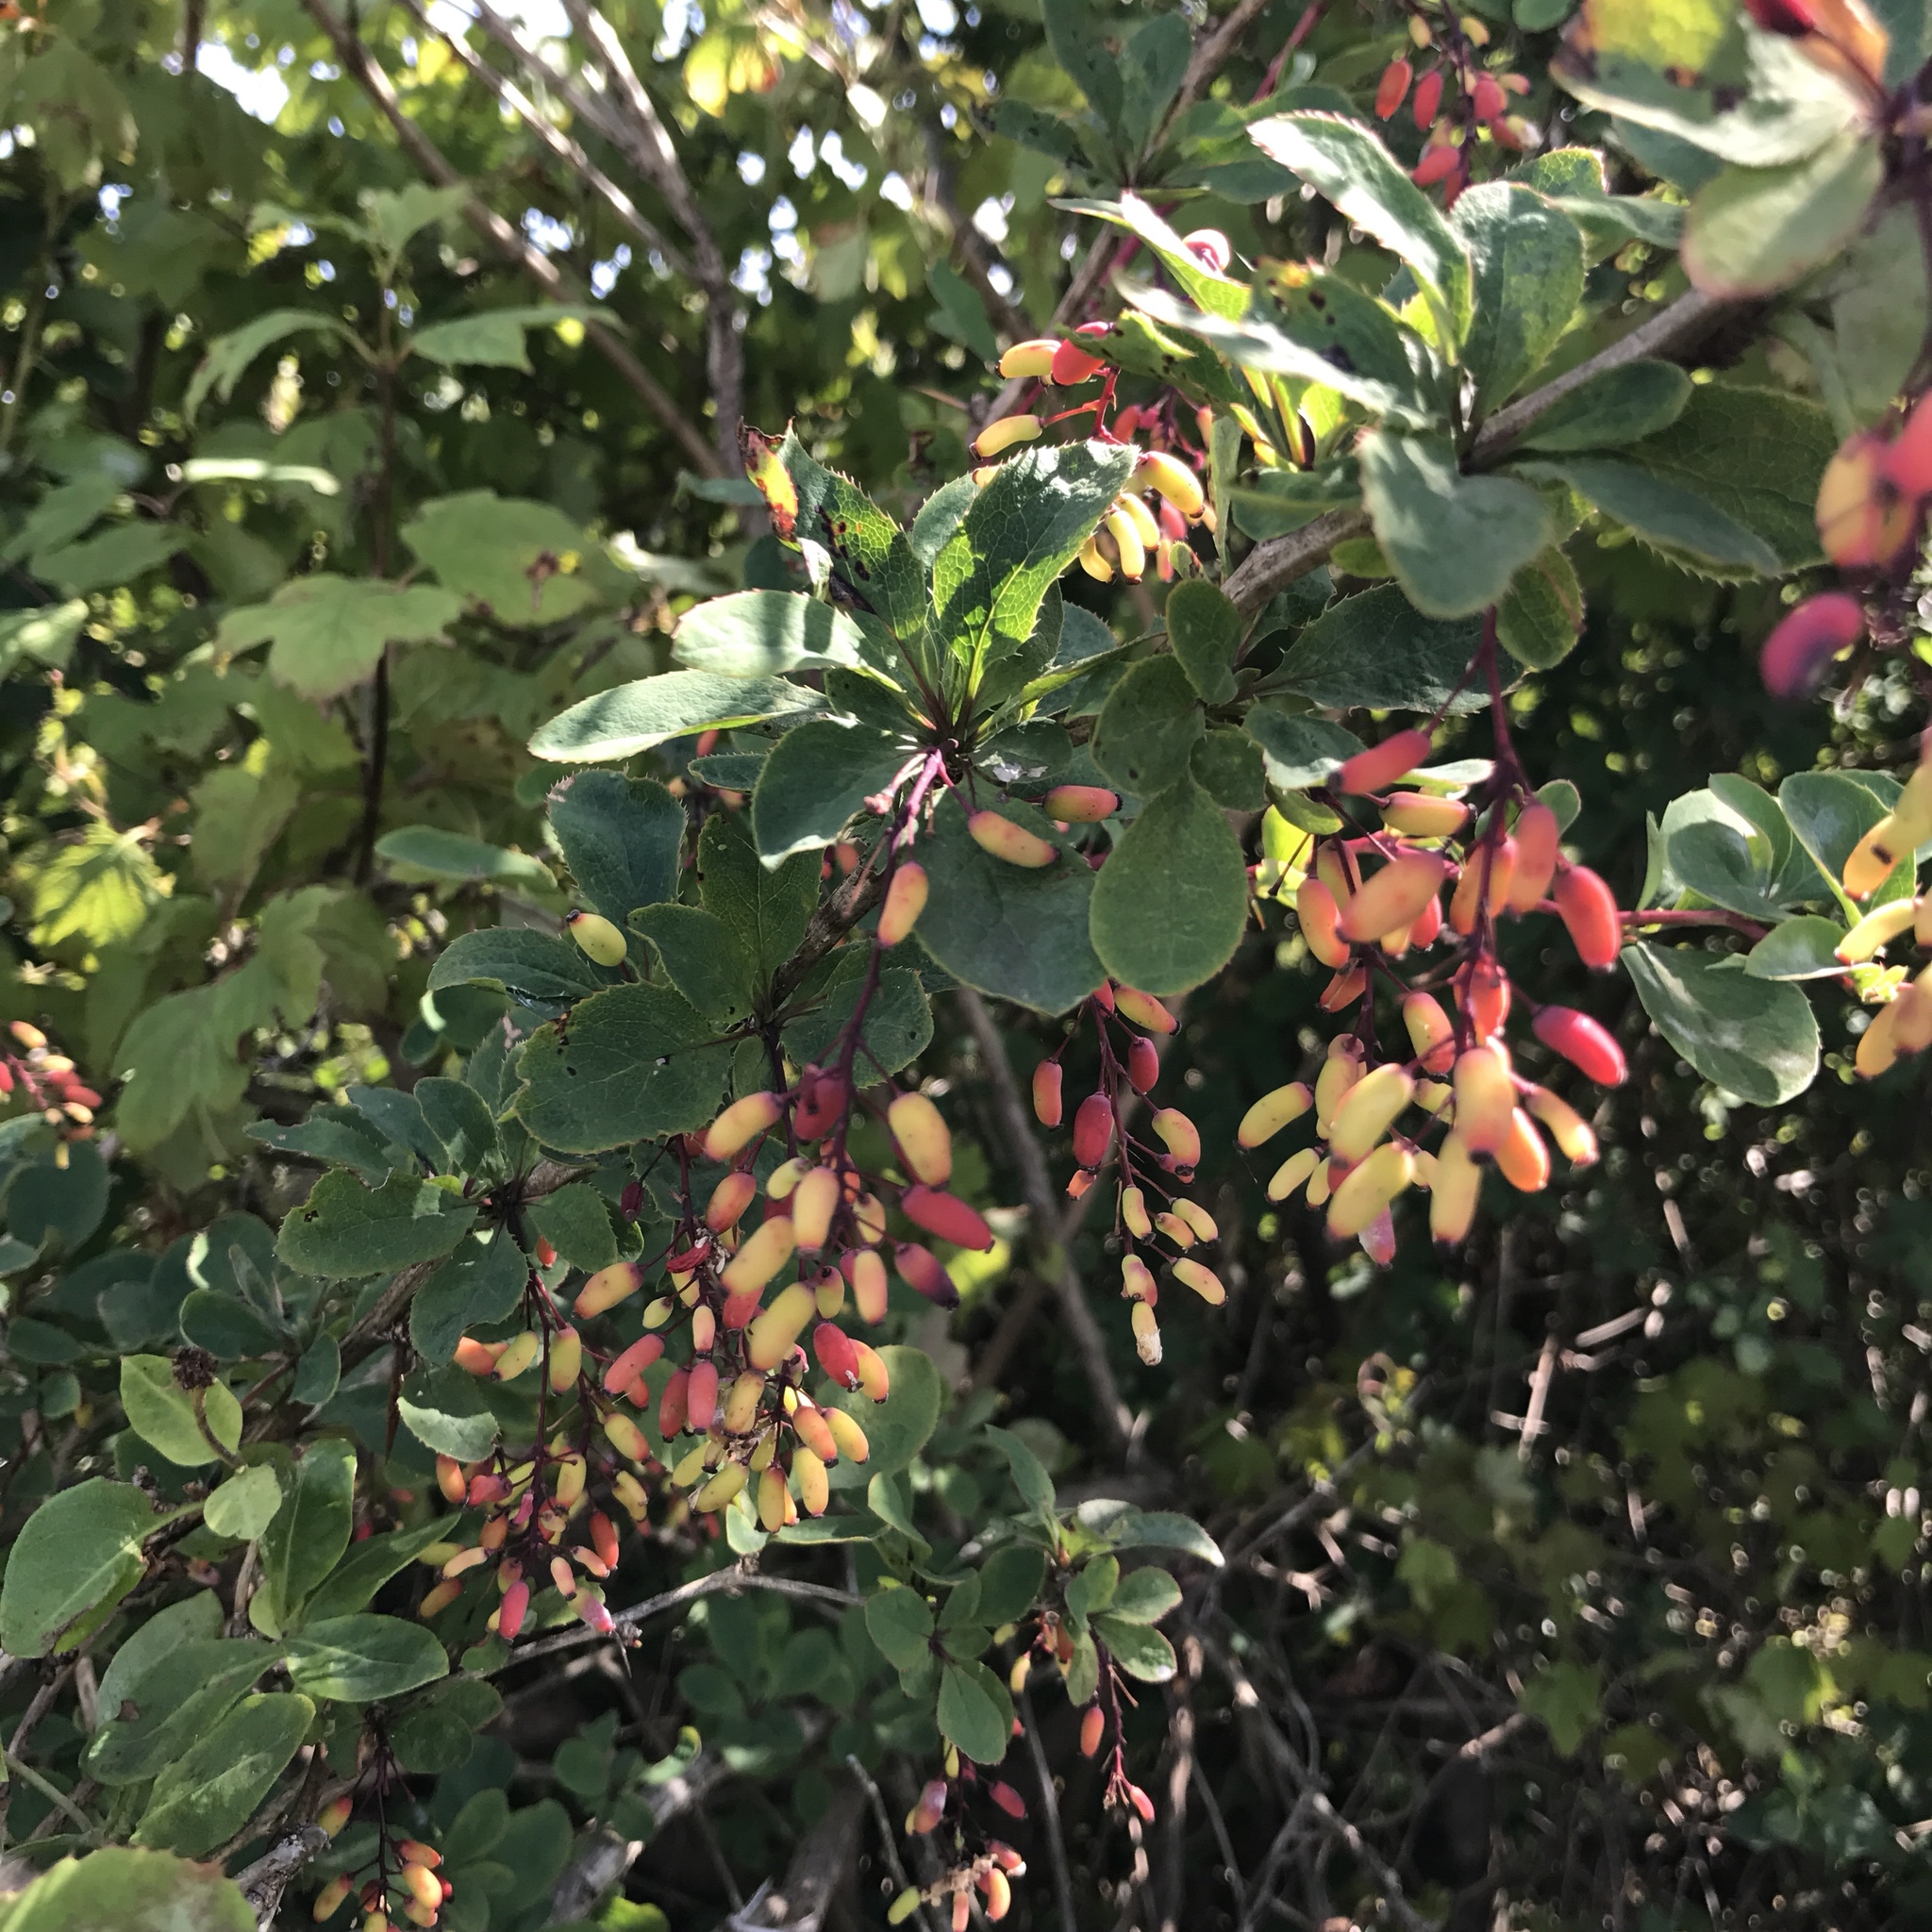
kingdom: Plantae
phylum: Tracheophyta
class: Magnoliopsida
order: Ranunculales
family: Berberidaceae
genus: Berberis
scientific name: Berberis vulgaris
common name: Barberry
